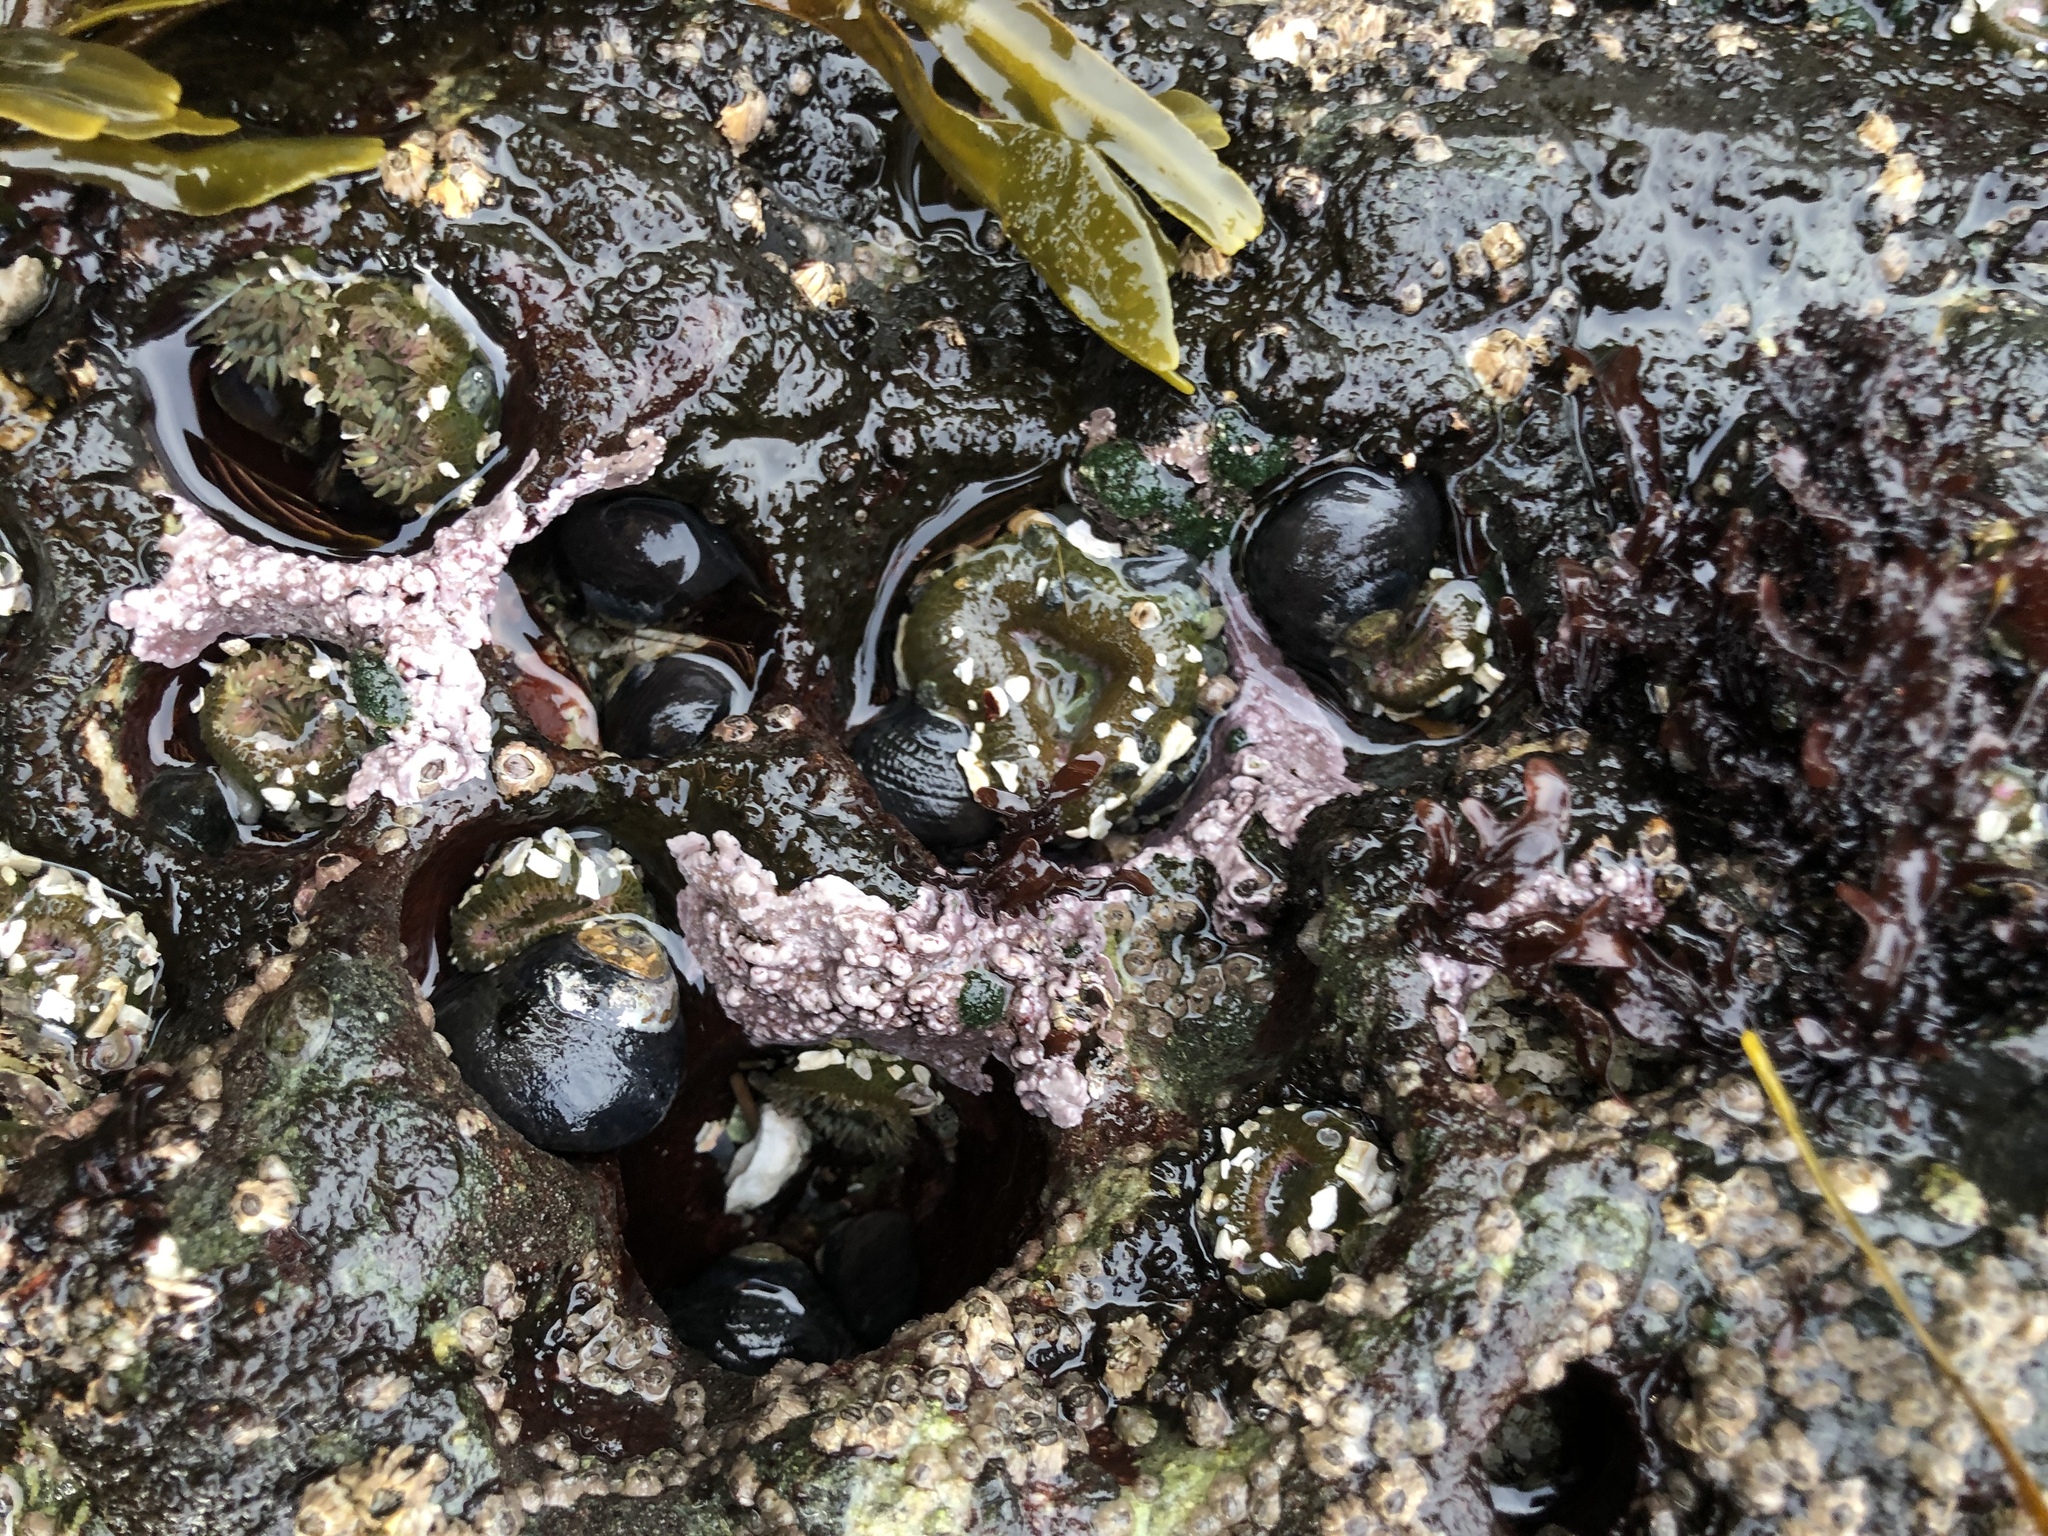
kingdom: Plantae
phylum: Rhodophyta
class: Florideophyceae
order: Corallinales
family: Corallinaceae
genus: Chamberlainium
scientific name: Chamberlainium tumidum
